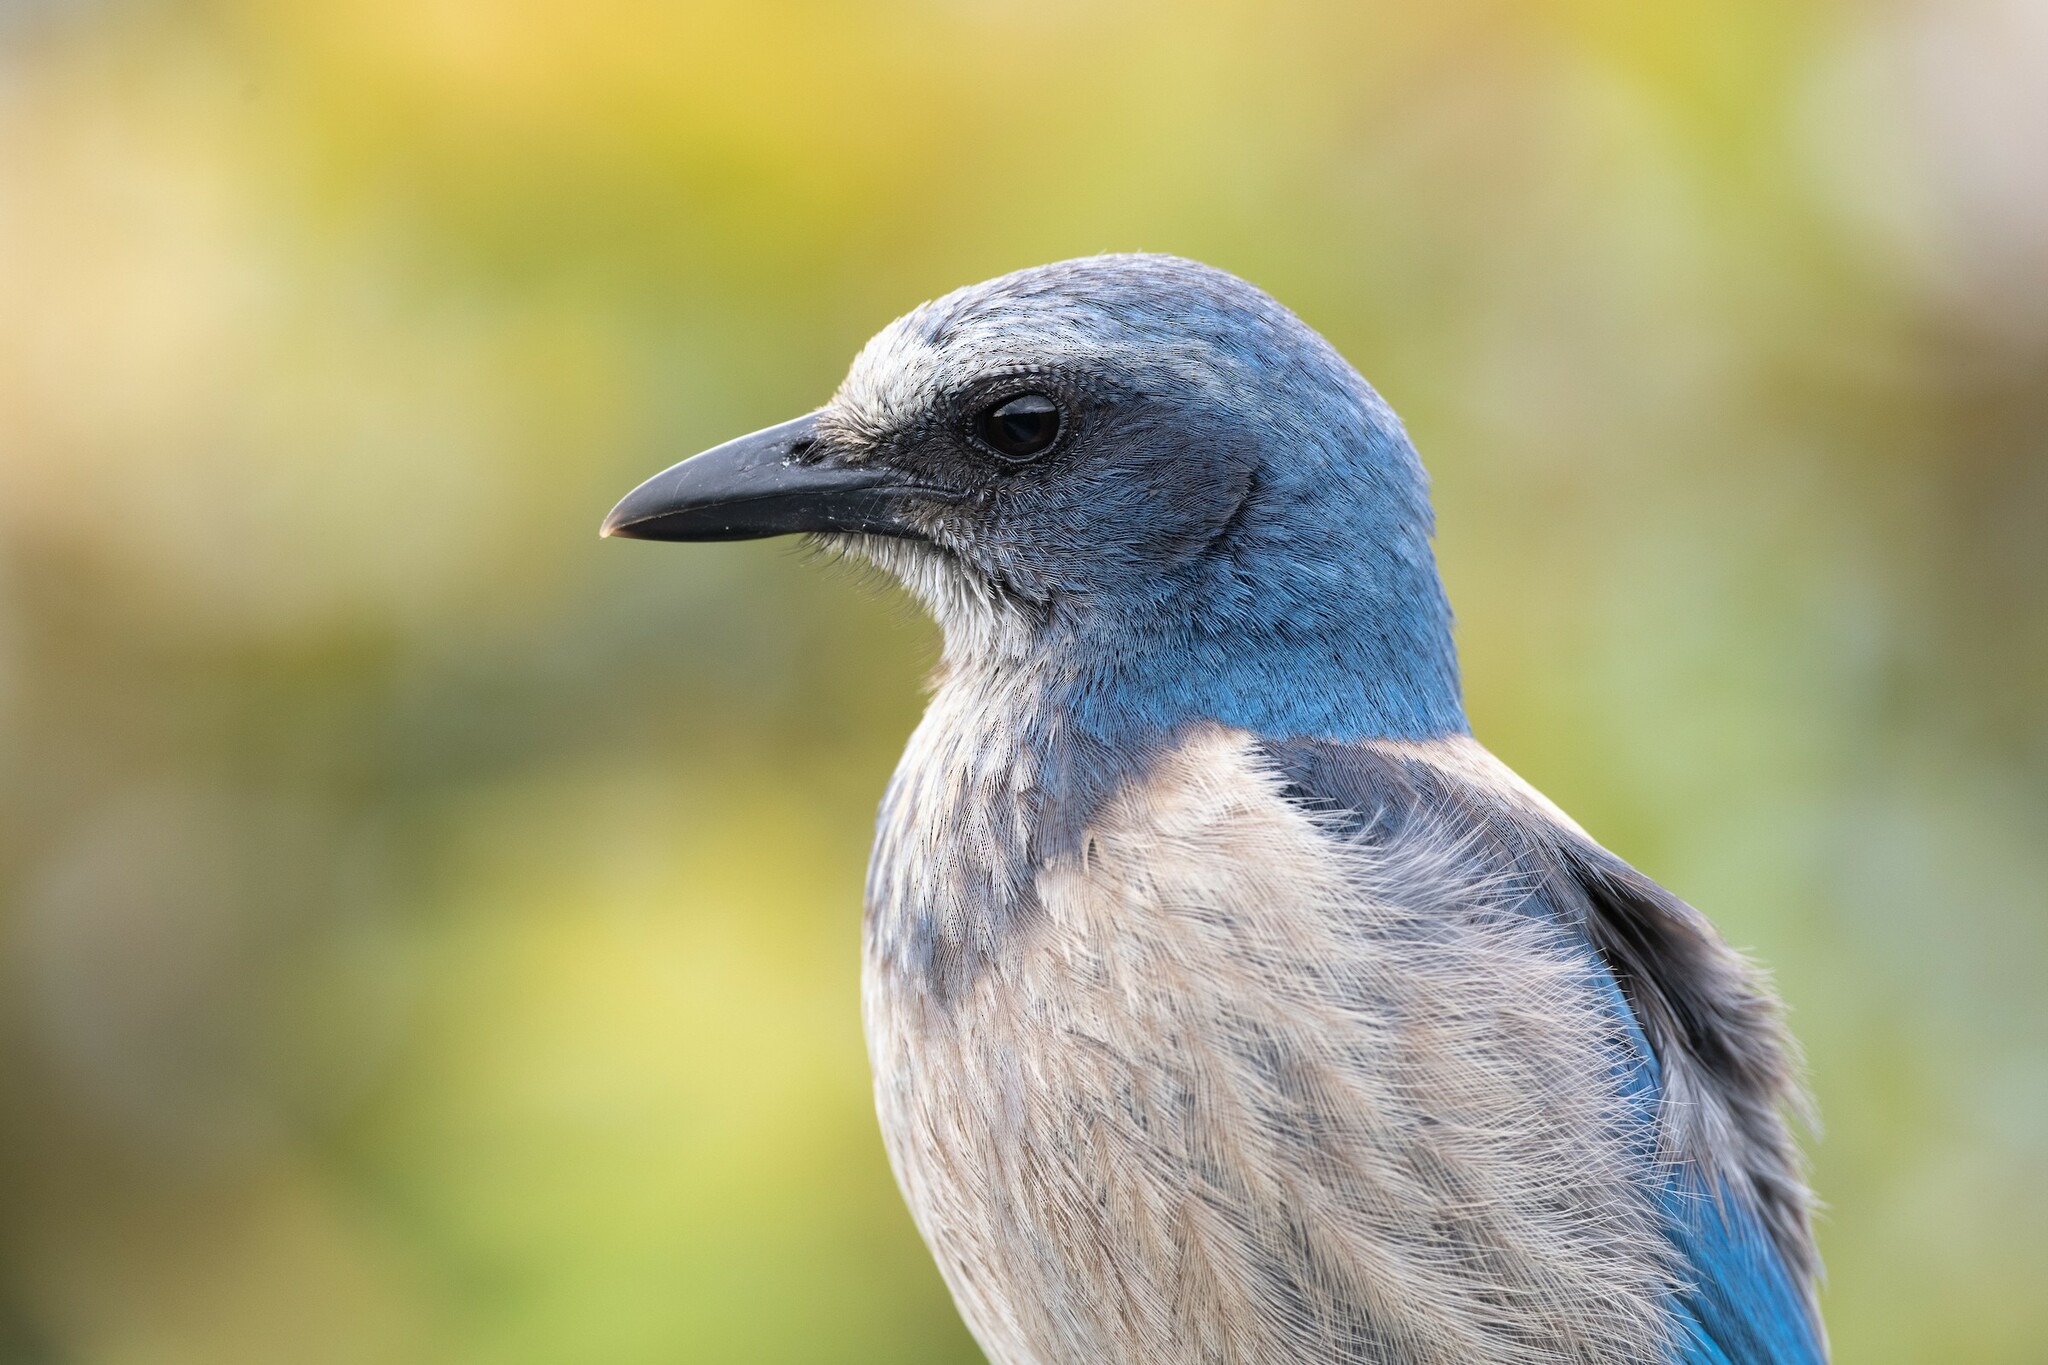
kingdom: Animalia
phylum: Chordata
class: Aves
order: Passeriformes
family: Corvidae
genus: Aphelocoma
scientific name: Aphelocoma coerulescens
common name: Florida scrub jay
